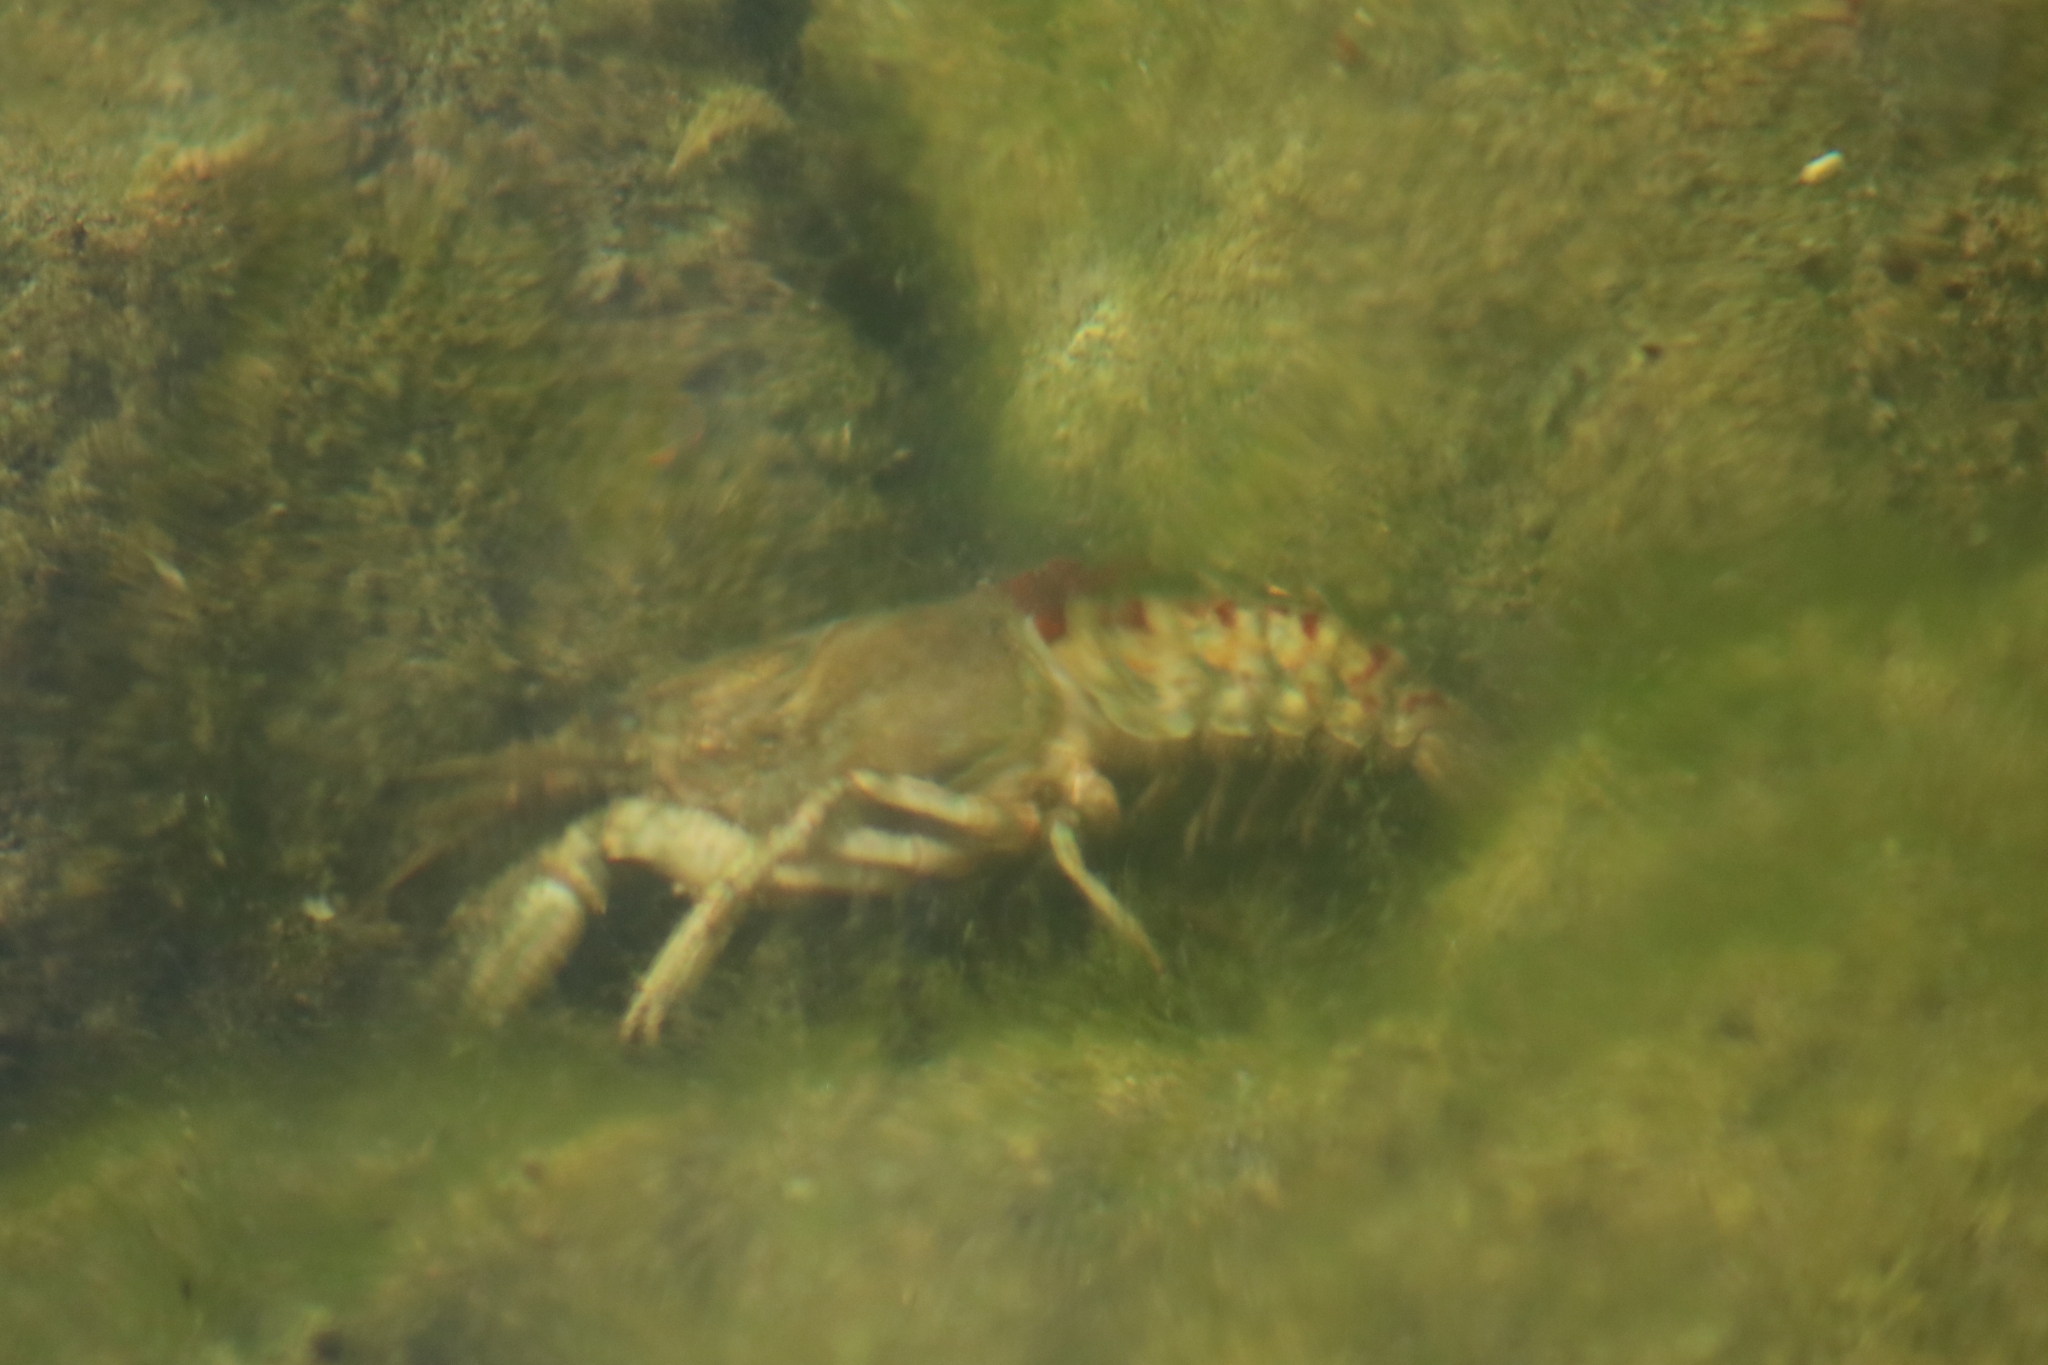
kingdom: Animalia
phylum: Arthropoda
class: Malacostraca
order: Decapoda
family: Cambaridae
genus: Faxonius
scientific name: Faxonius limosus
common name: American crayfish
